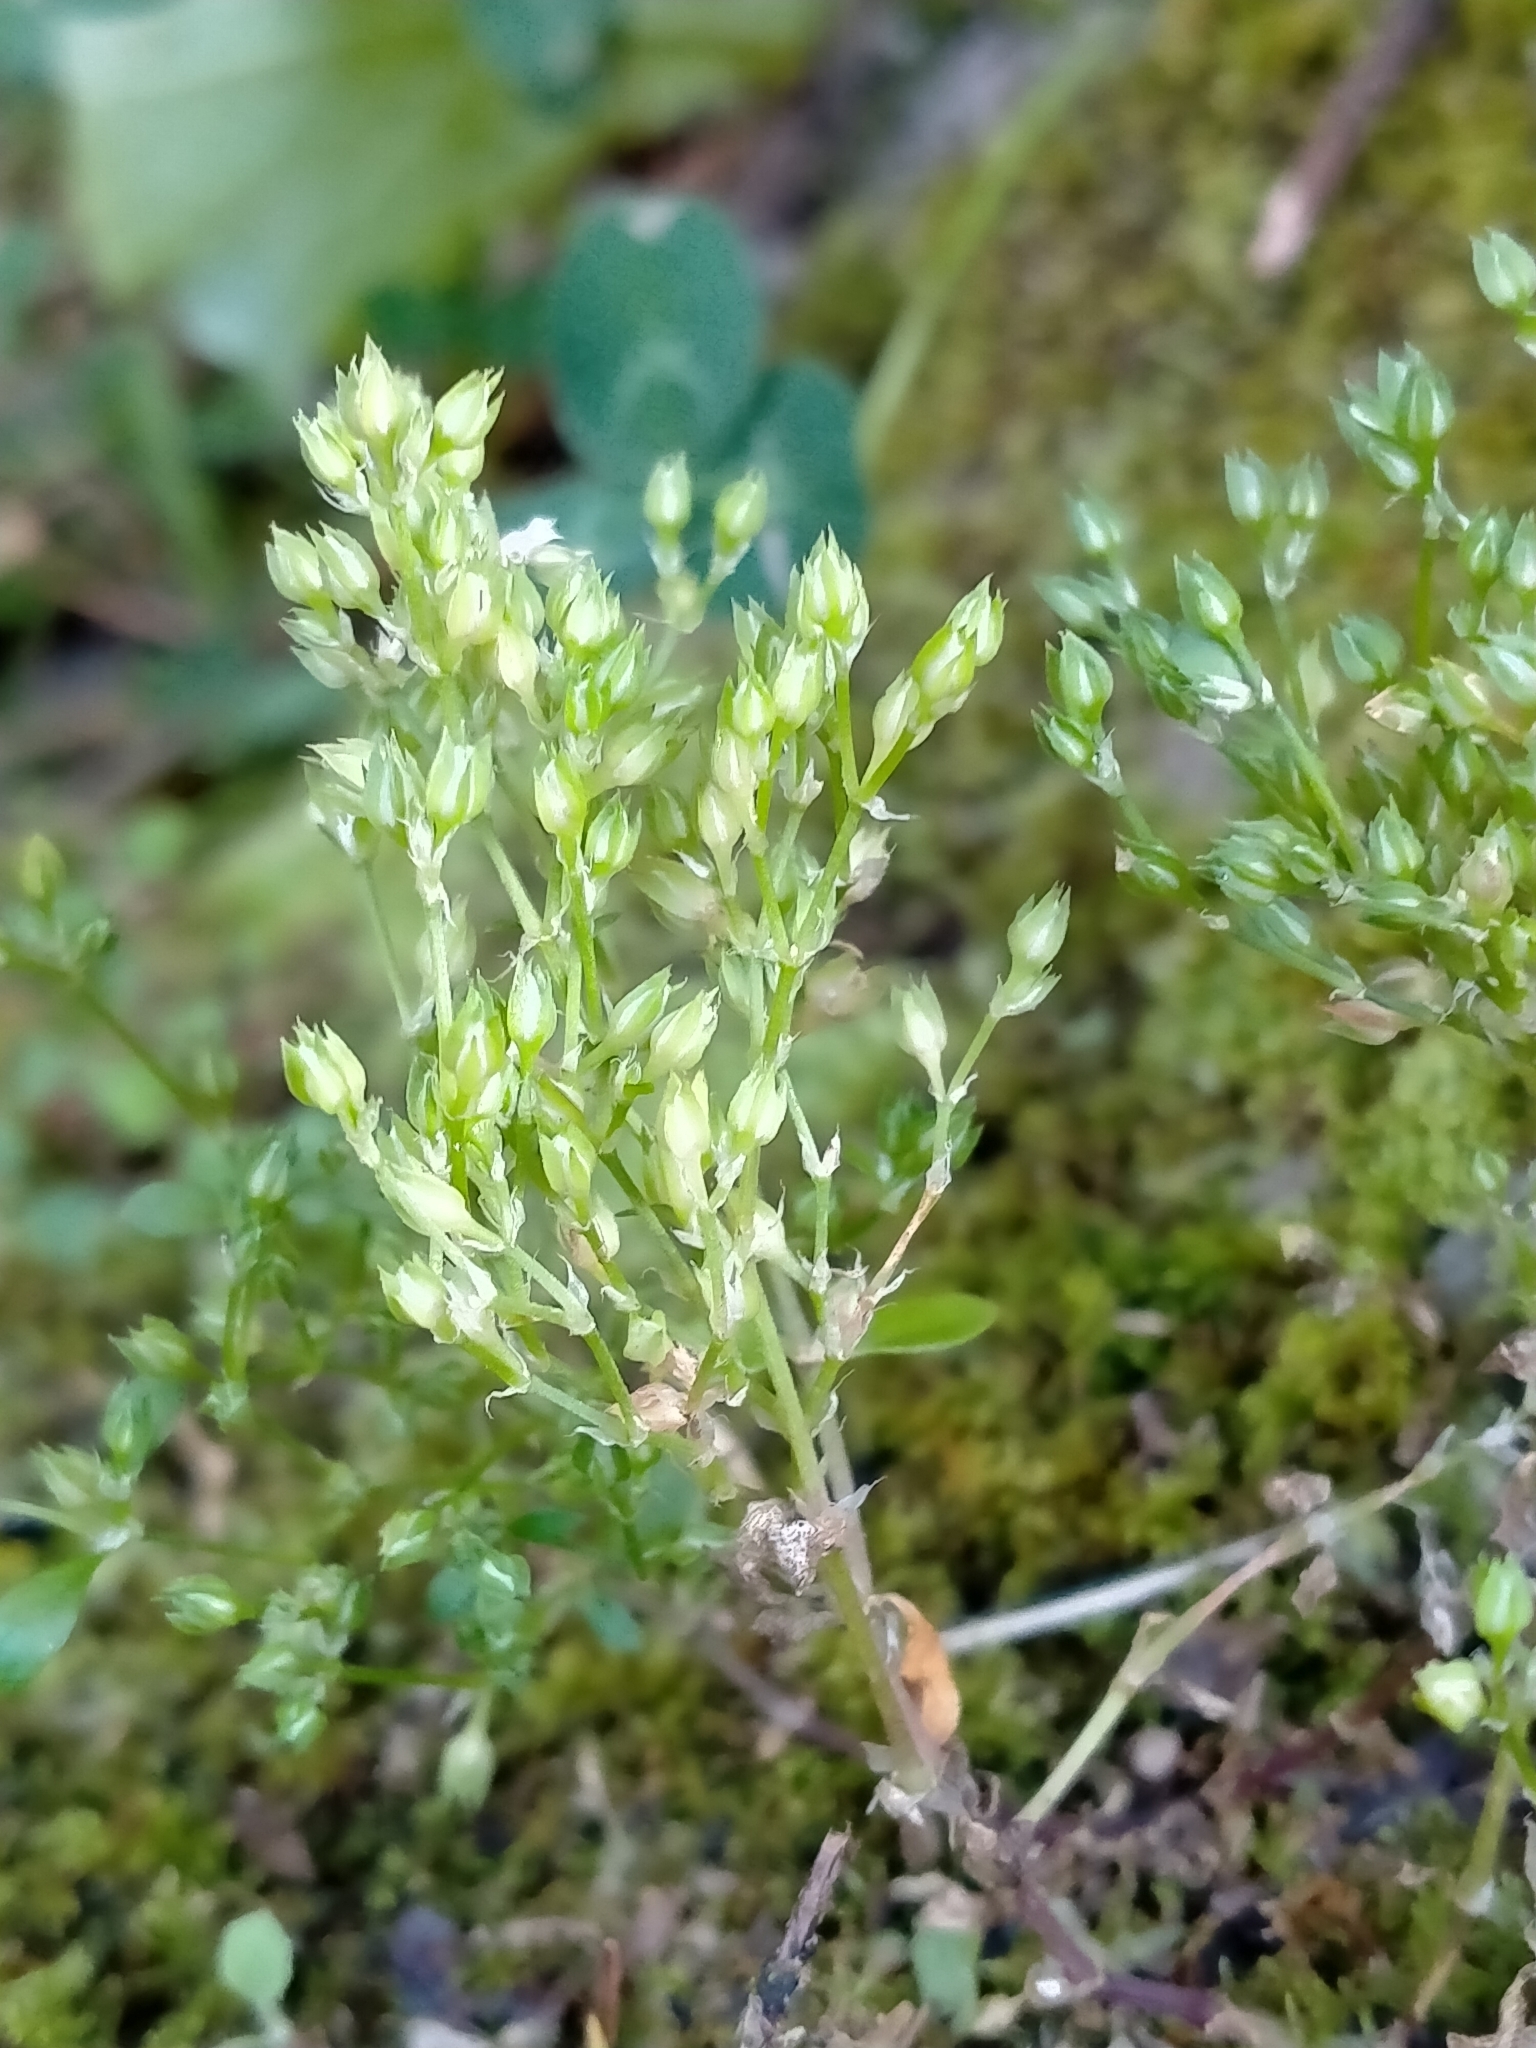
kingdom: Plantae
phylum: Tracheophyta
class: Magnoliopsida
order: Caryophyllales
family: Caryophyllaceae
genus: Polycarpon
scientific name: Polycarpon tetraphyllum
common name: Four-leaved all-seed
